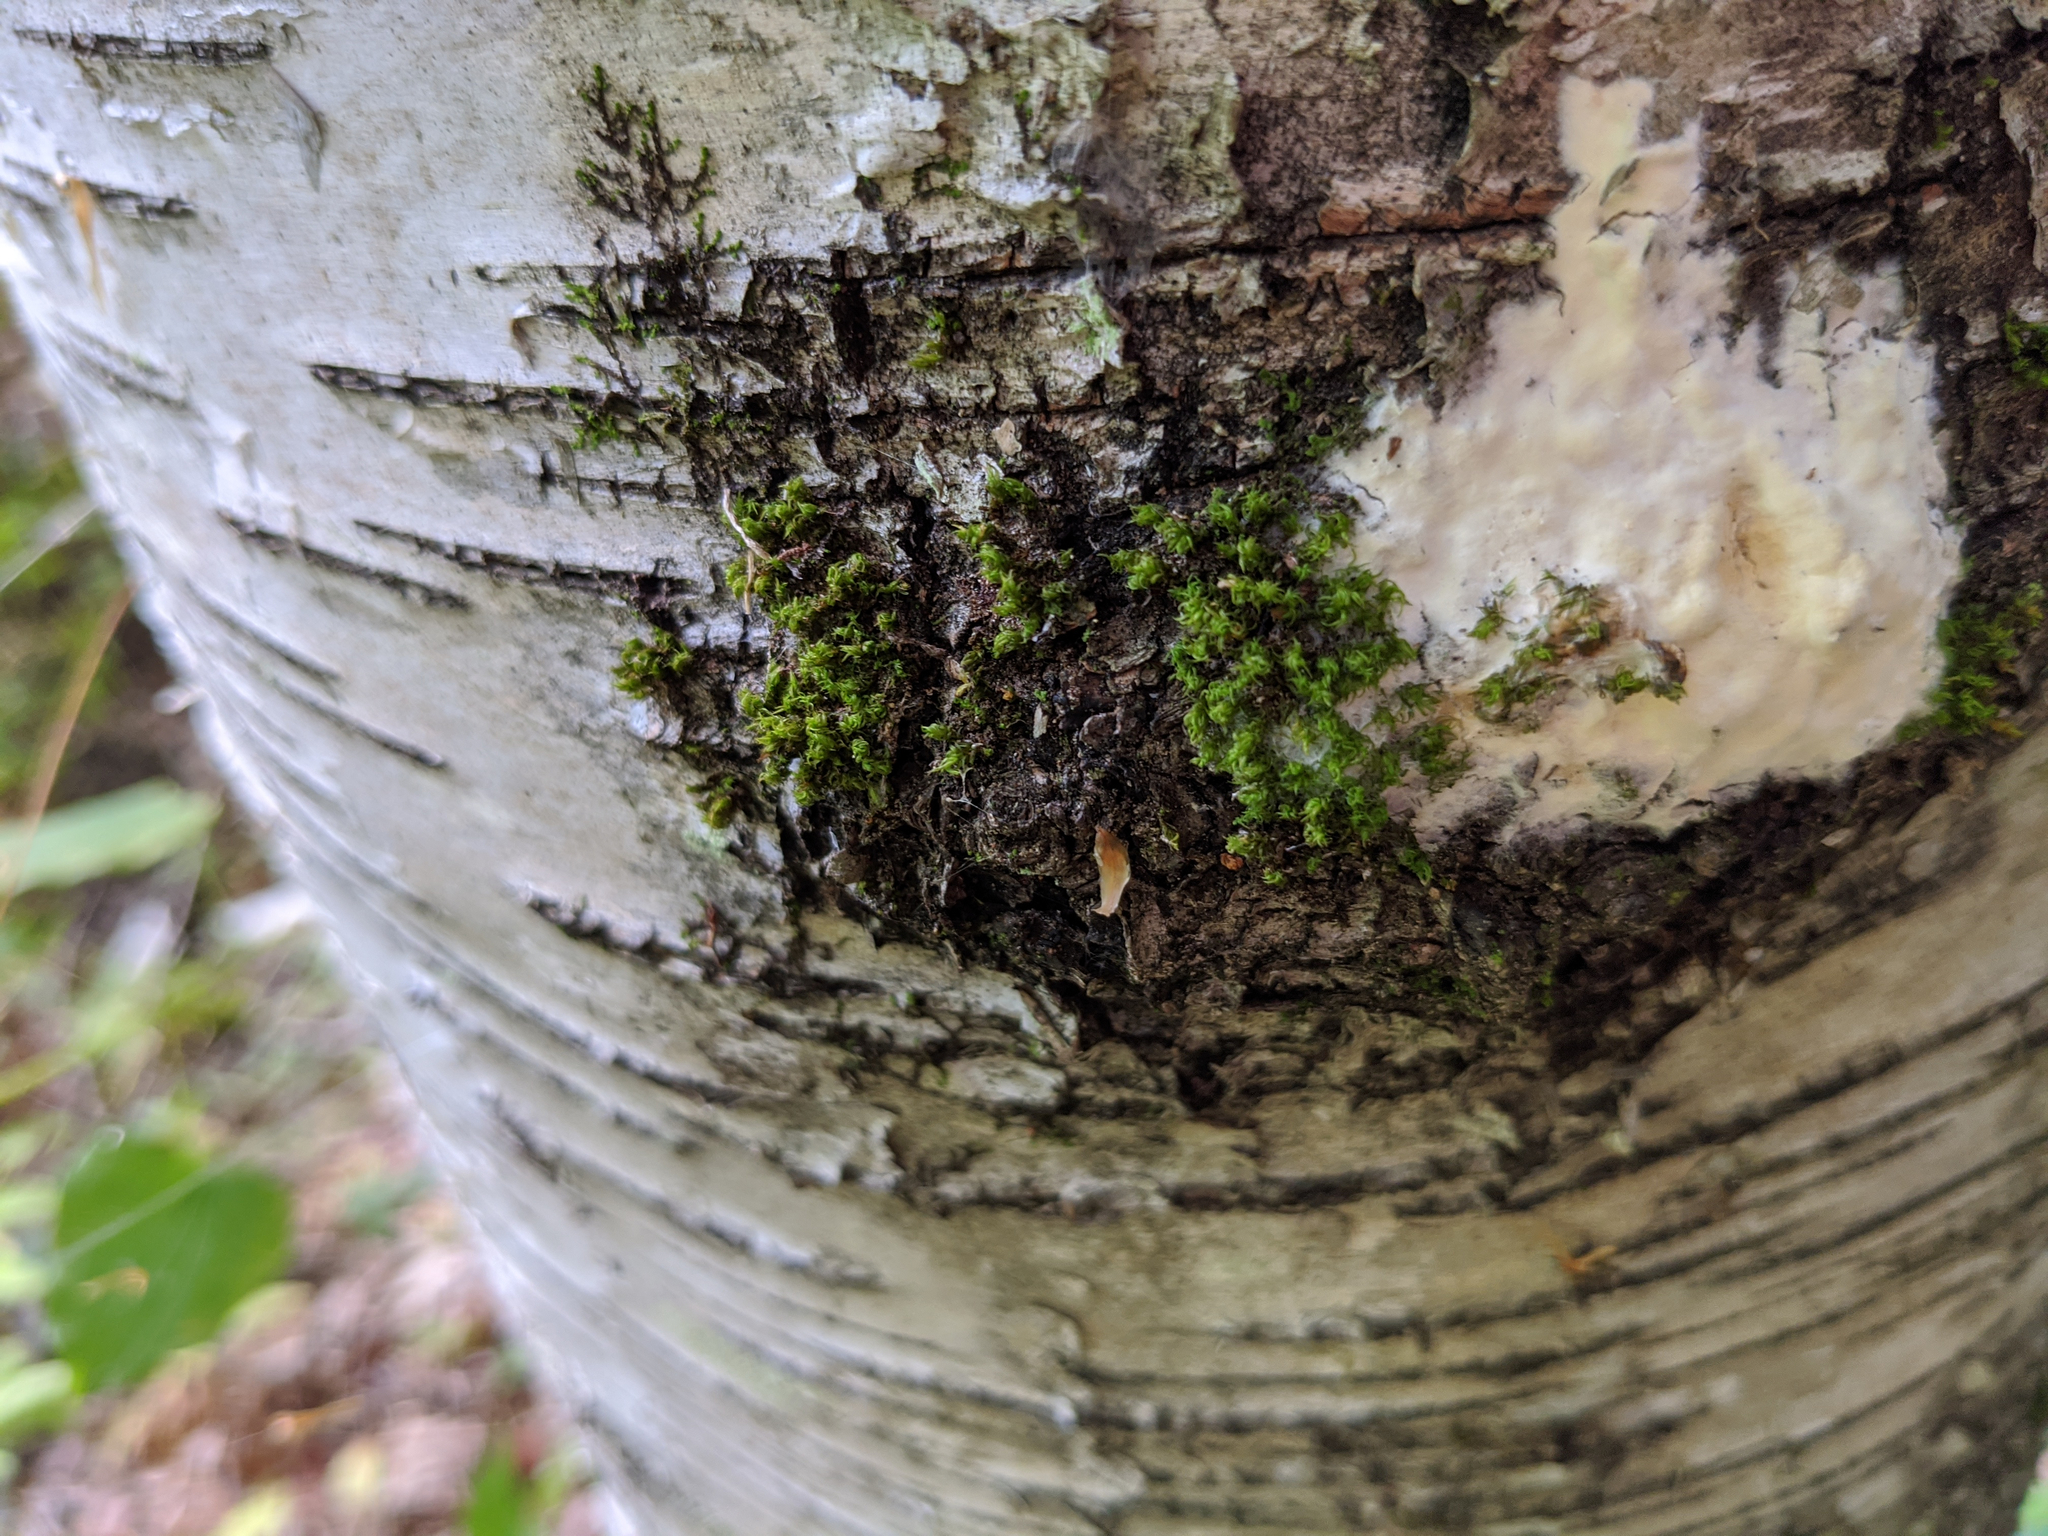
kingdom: Plantae
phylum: Bryophyta
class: Bryopsida
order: Orthotrichales
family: Orthotrichaceae
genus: Ulota
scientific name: Ulota crispa
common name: Crisped pincushion moss
